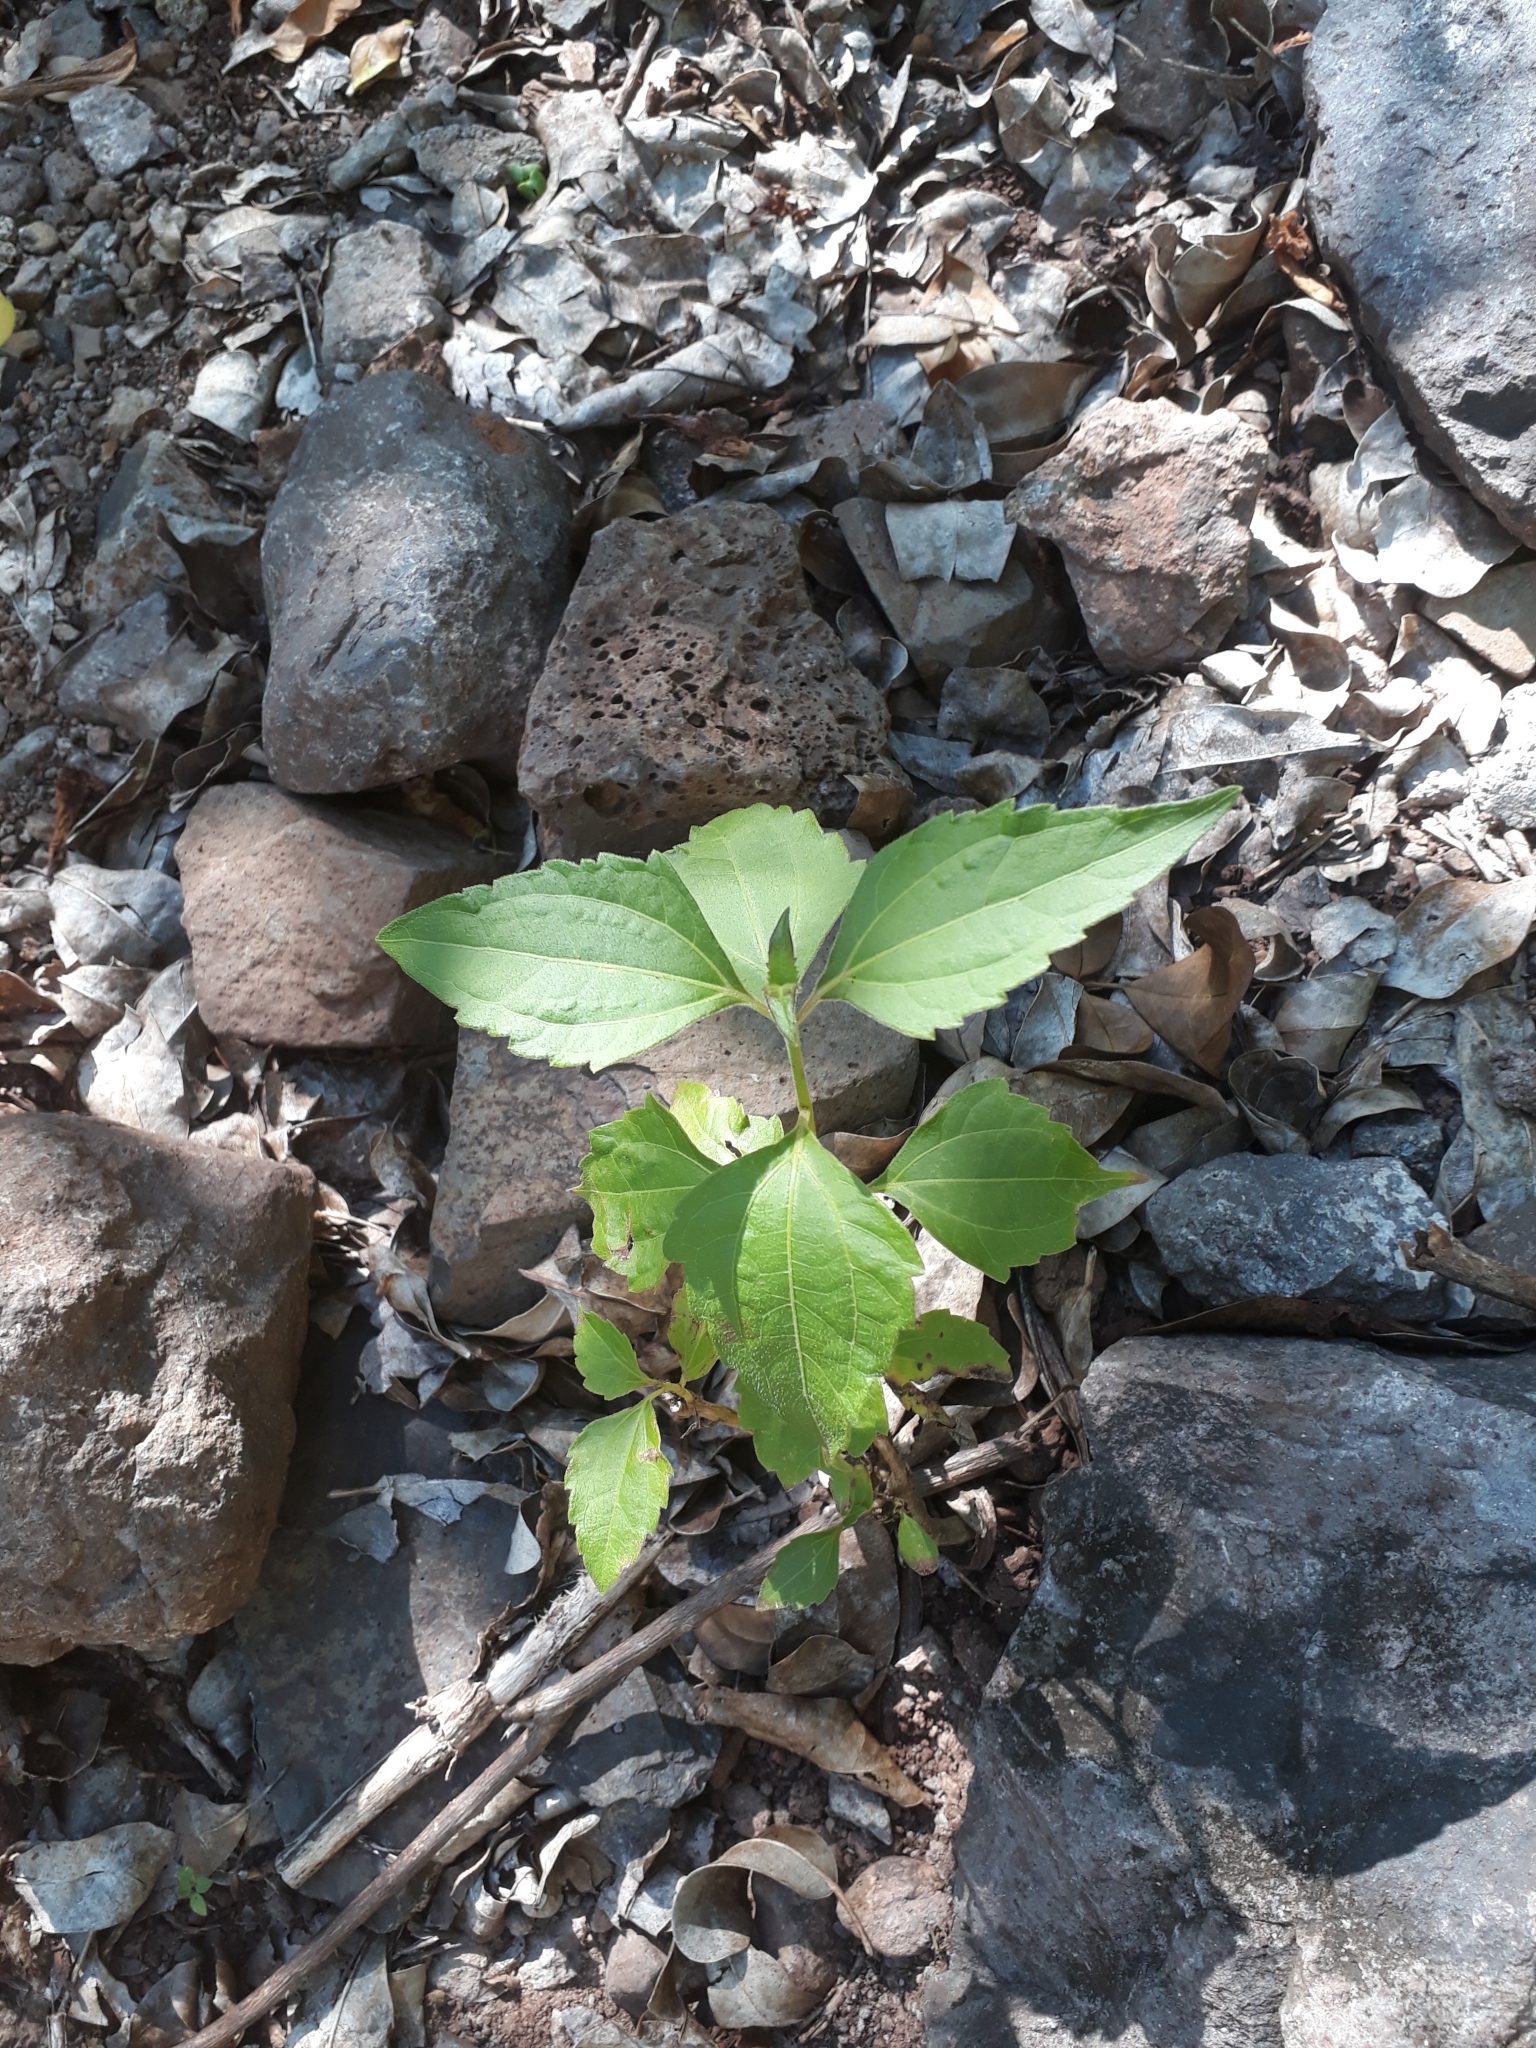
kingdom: Plantae
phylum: Tracheophyta
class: Magnoliopsida
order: Asterales
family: Asteraceae
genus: Chromolaena
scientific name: Chromolaena odorata
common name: Siamweed
